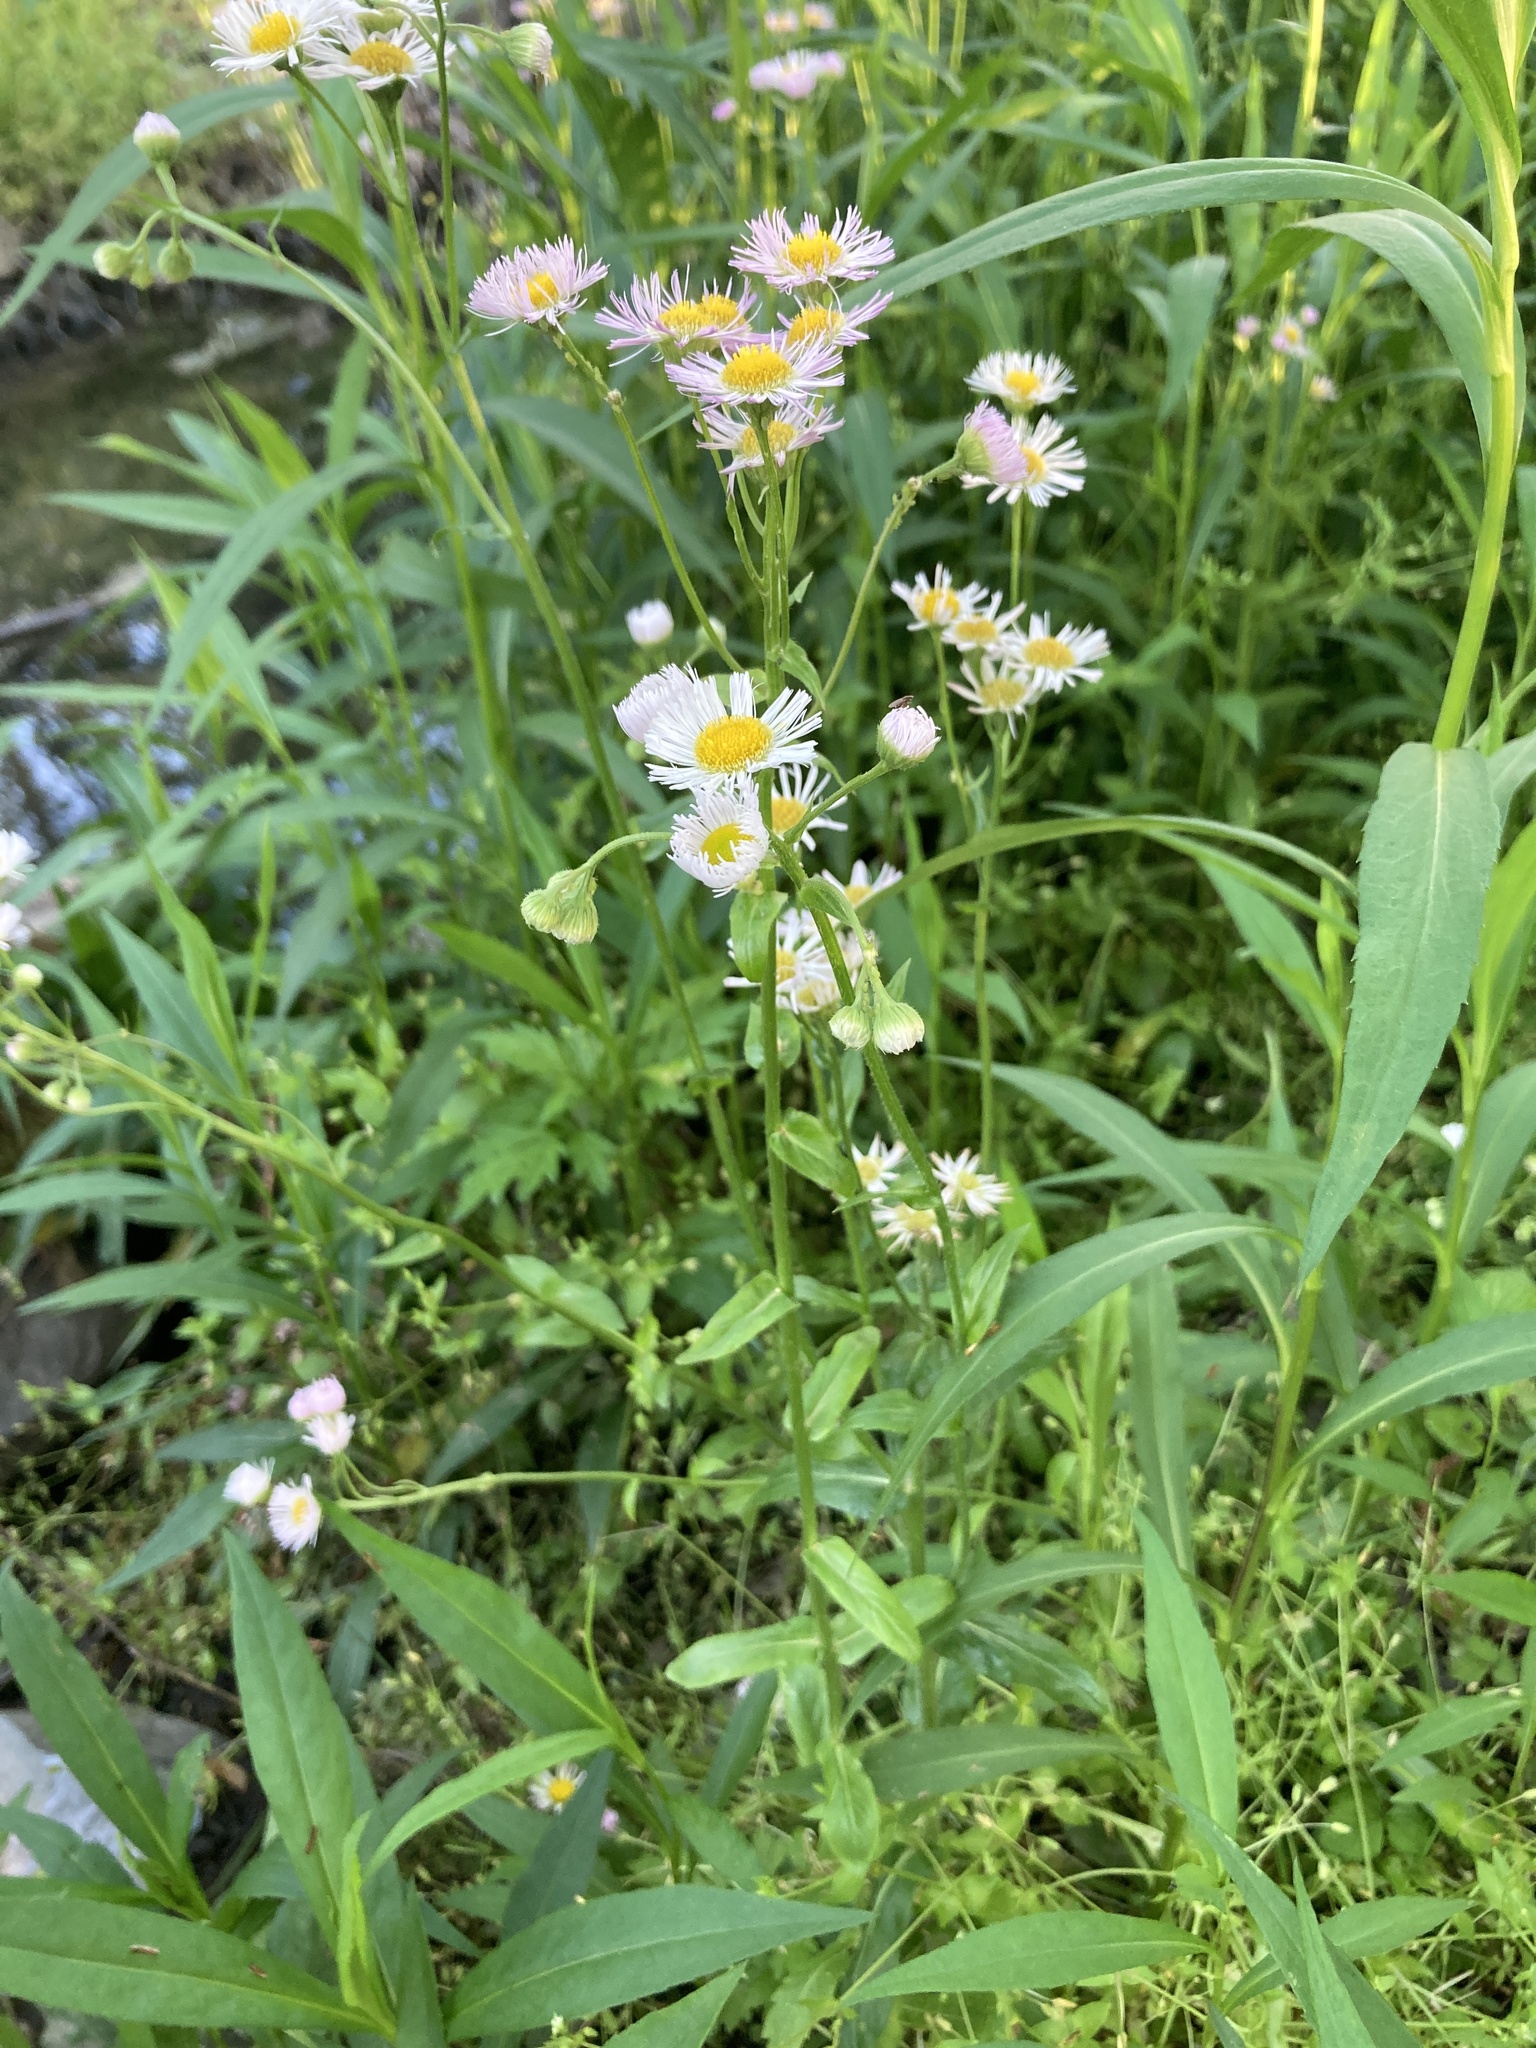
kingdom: Plantae
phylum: Tracheophyta
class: Magnoliopsida
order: Asterales
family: Asteraceae
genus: Erigeron
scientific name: Erigeron philadelphicus
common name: Robin's-plantain
